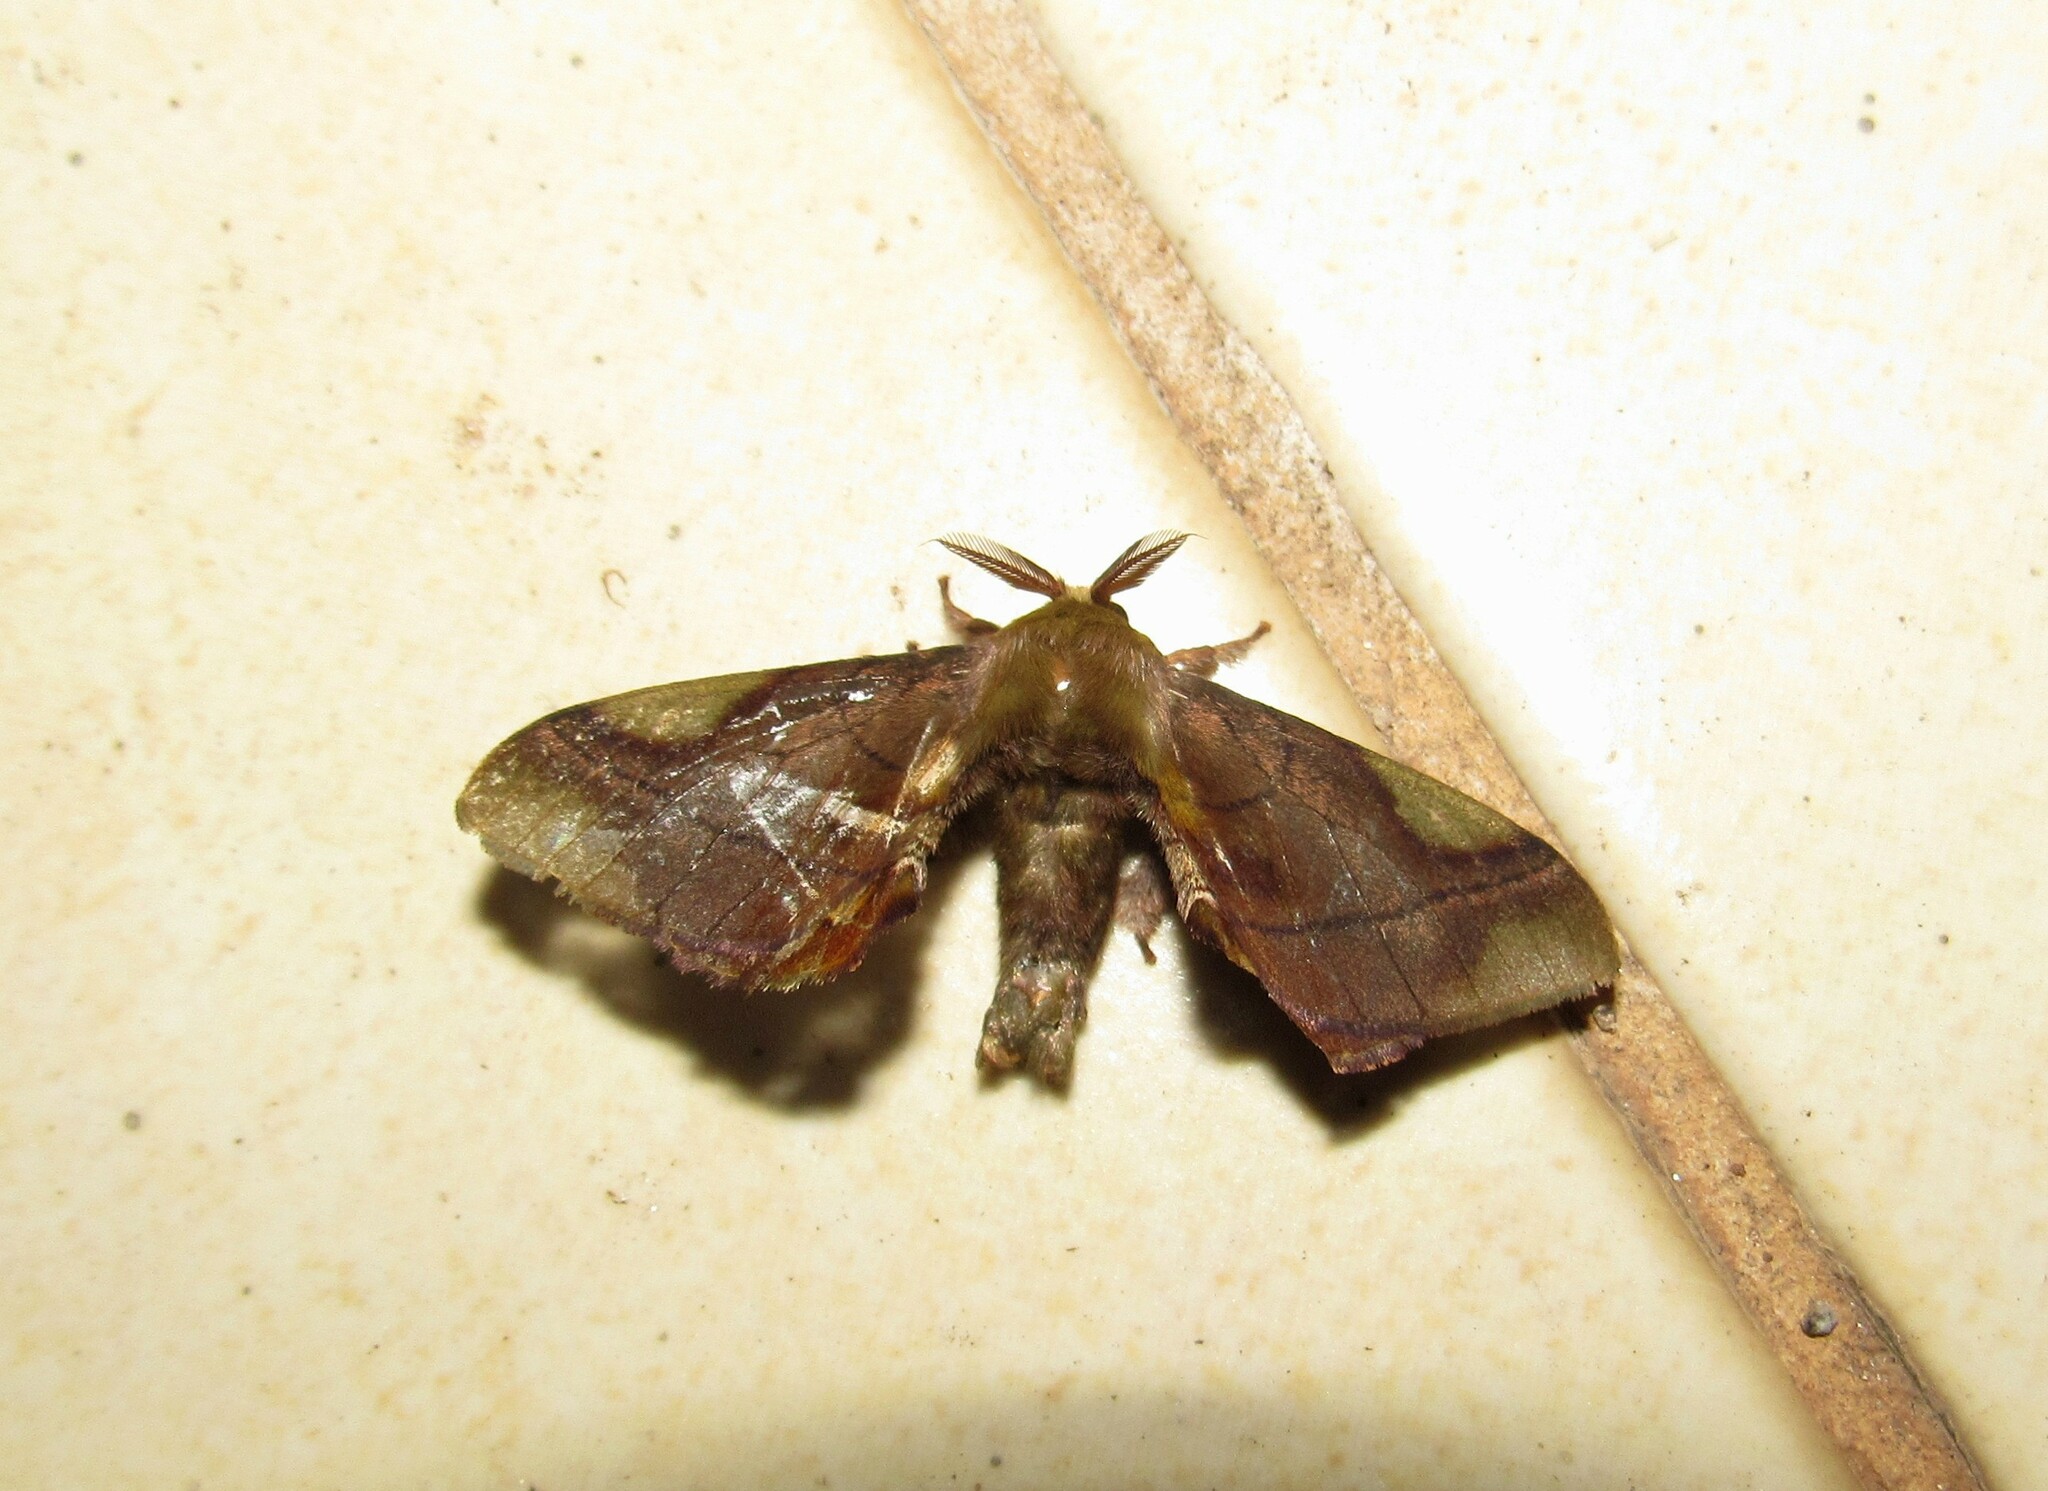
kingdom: Animalia
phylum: Arthropoda
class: Insecta
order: Lepidoptera
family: Bombycidae
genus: Epia
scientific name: Epia muscosa
